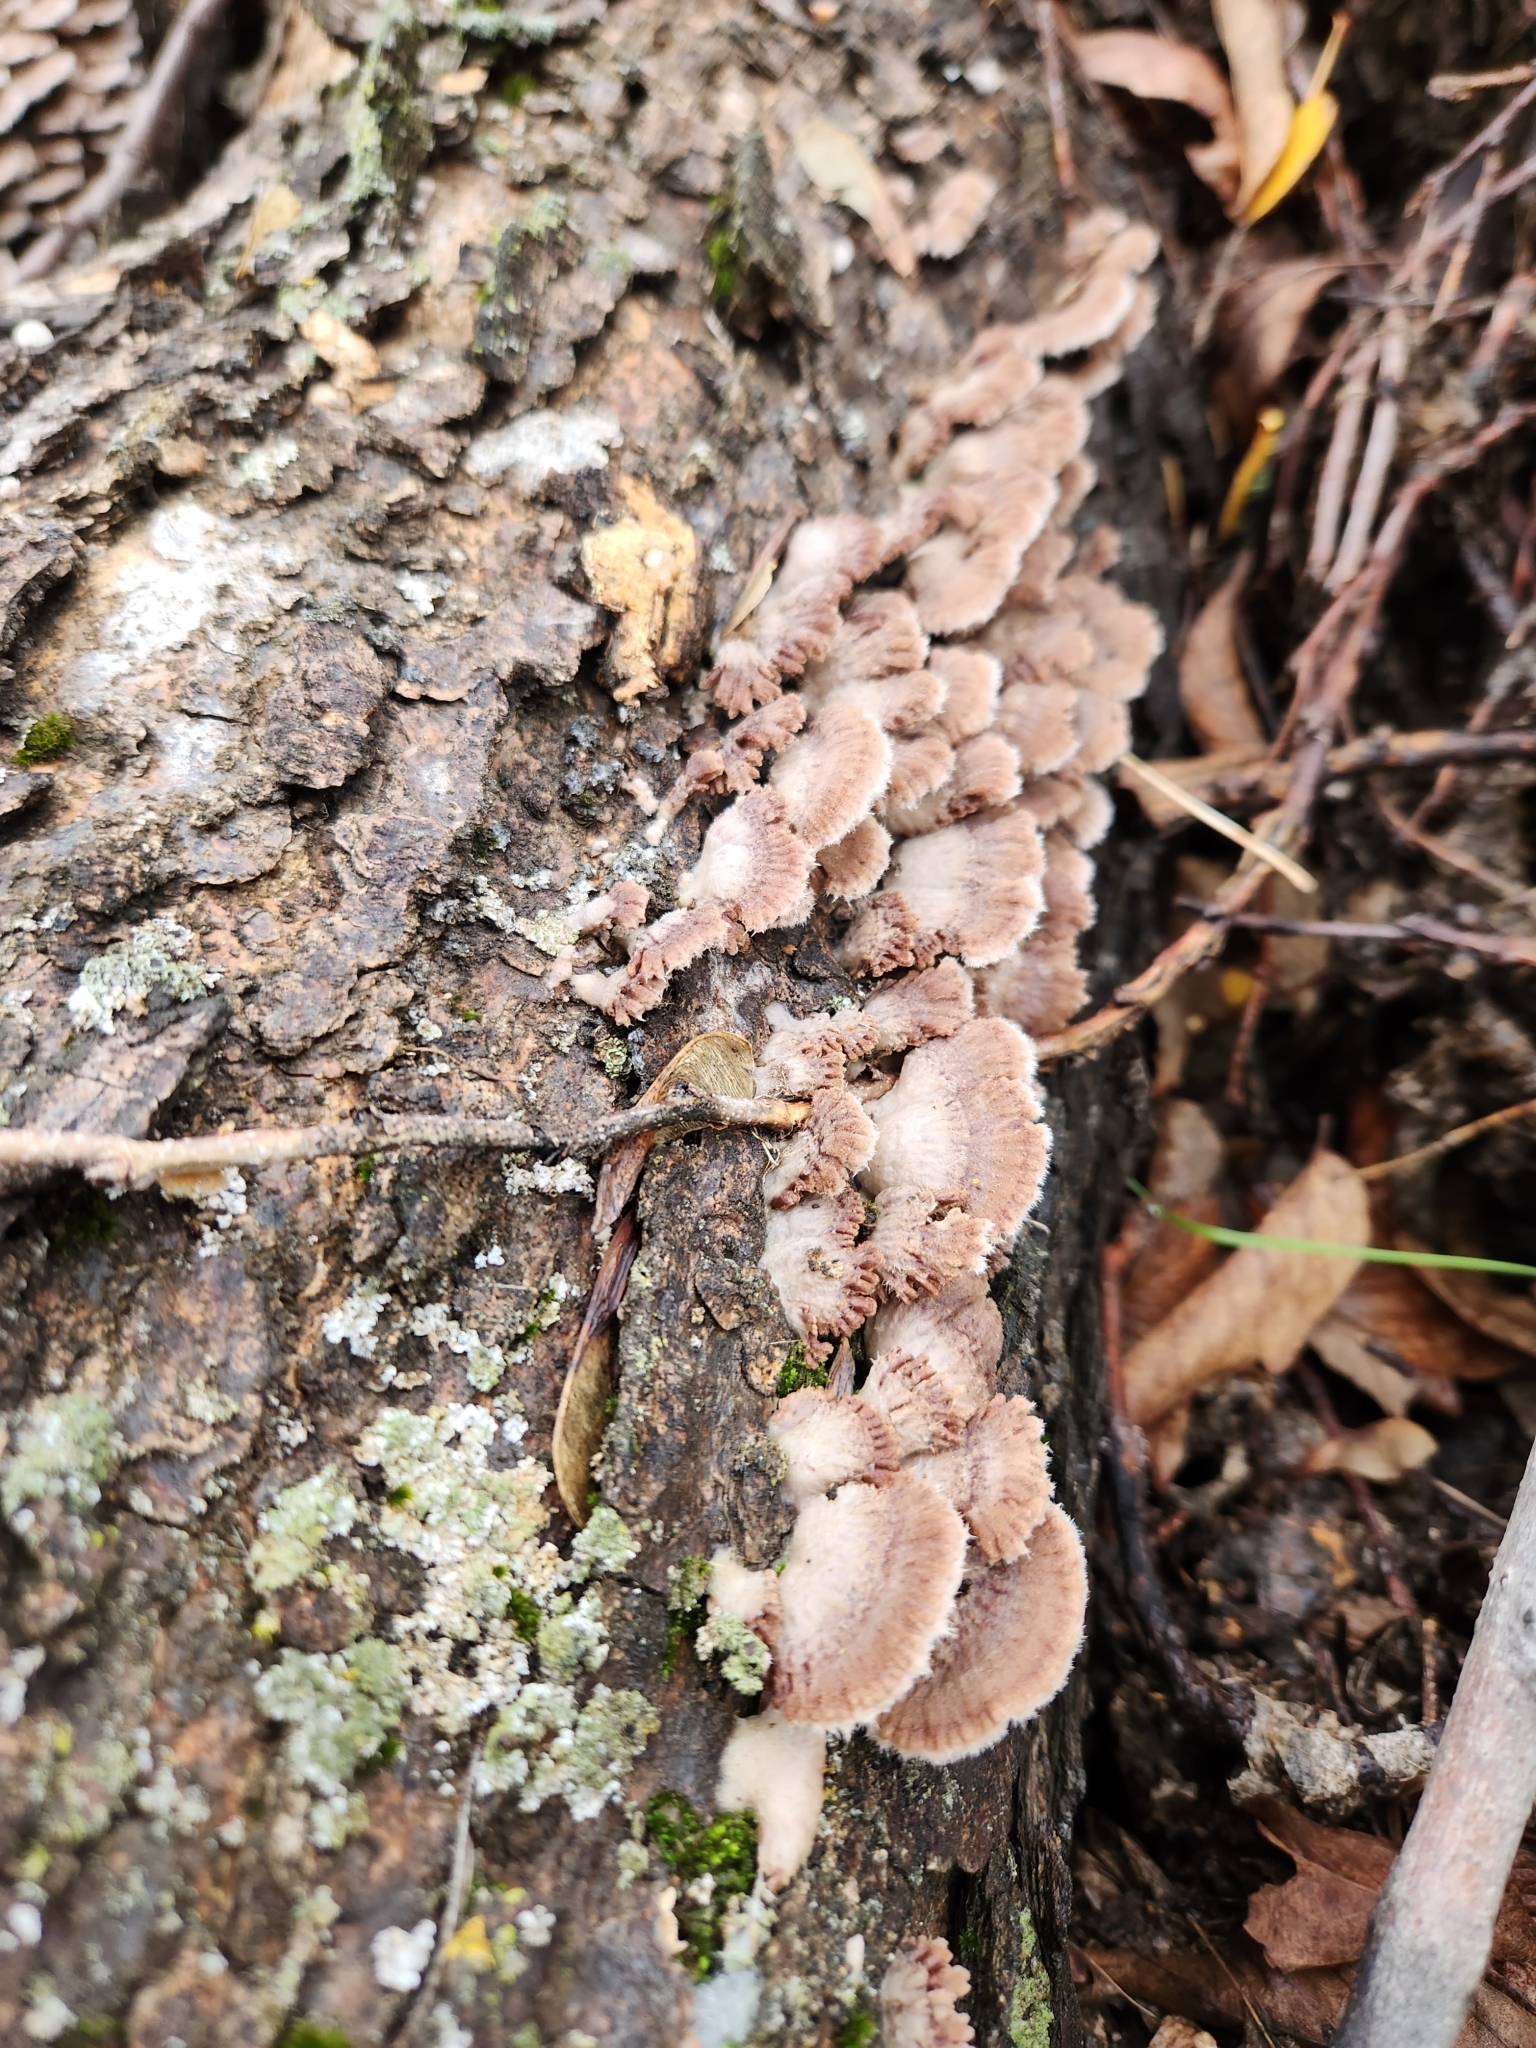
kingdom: Fungi
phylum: Basidiomycota
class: Agaricomycetes
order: Agaricales
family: Schizophyllaceae
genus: Schizophyllum
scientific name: Schizophyllum commune
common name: Common porecrust
